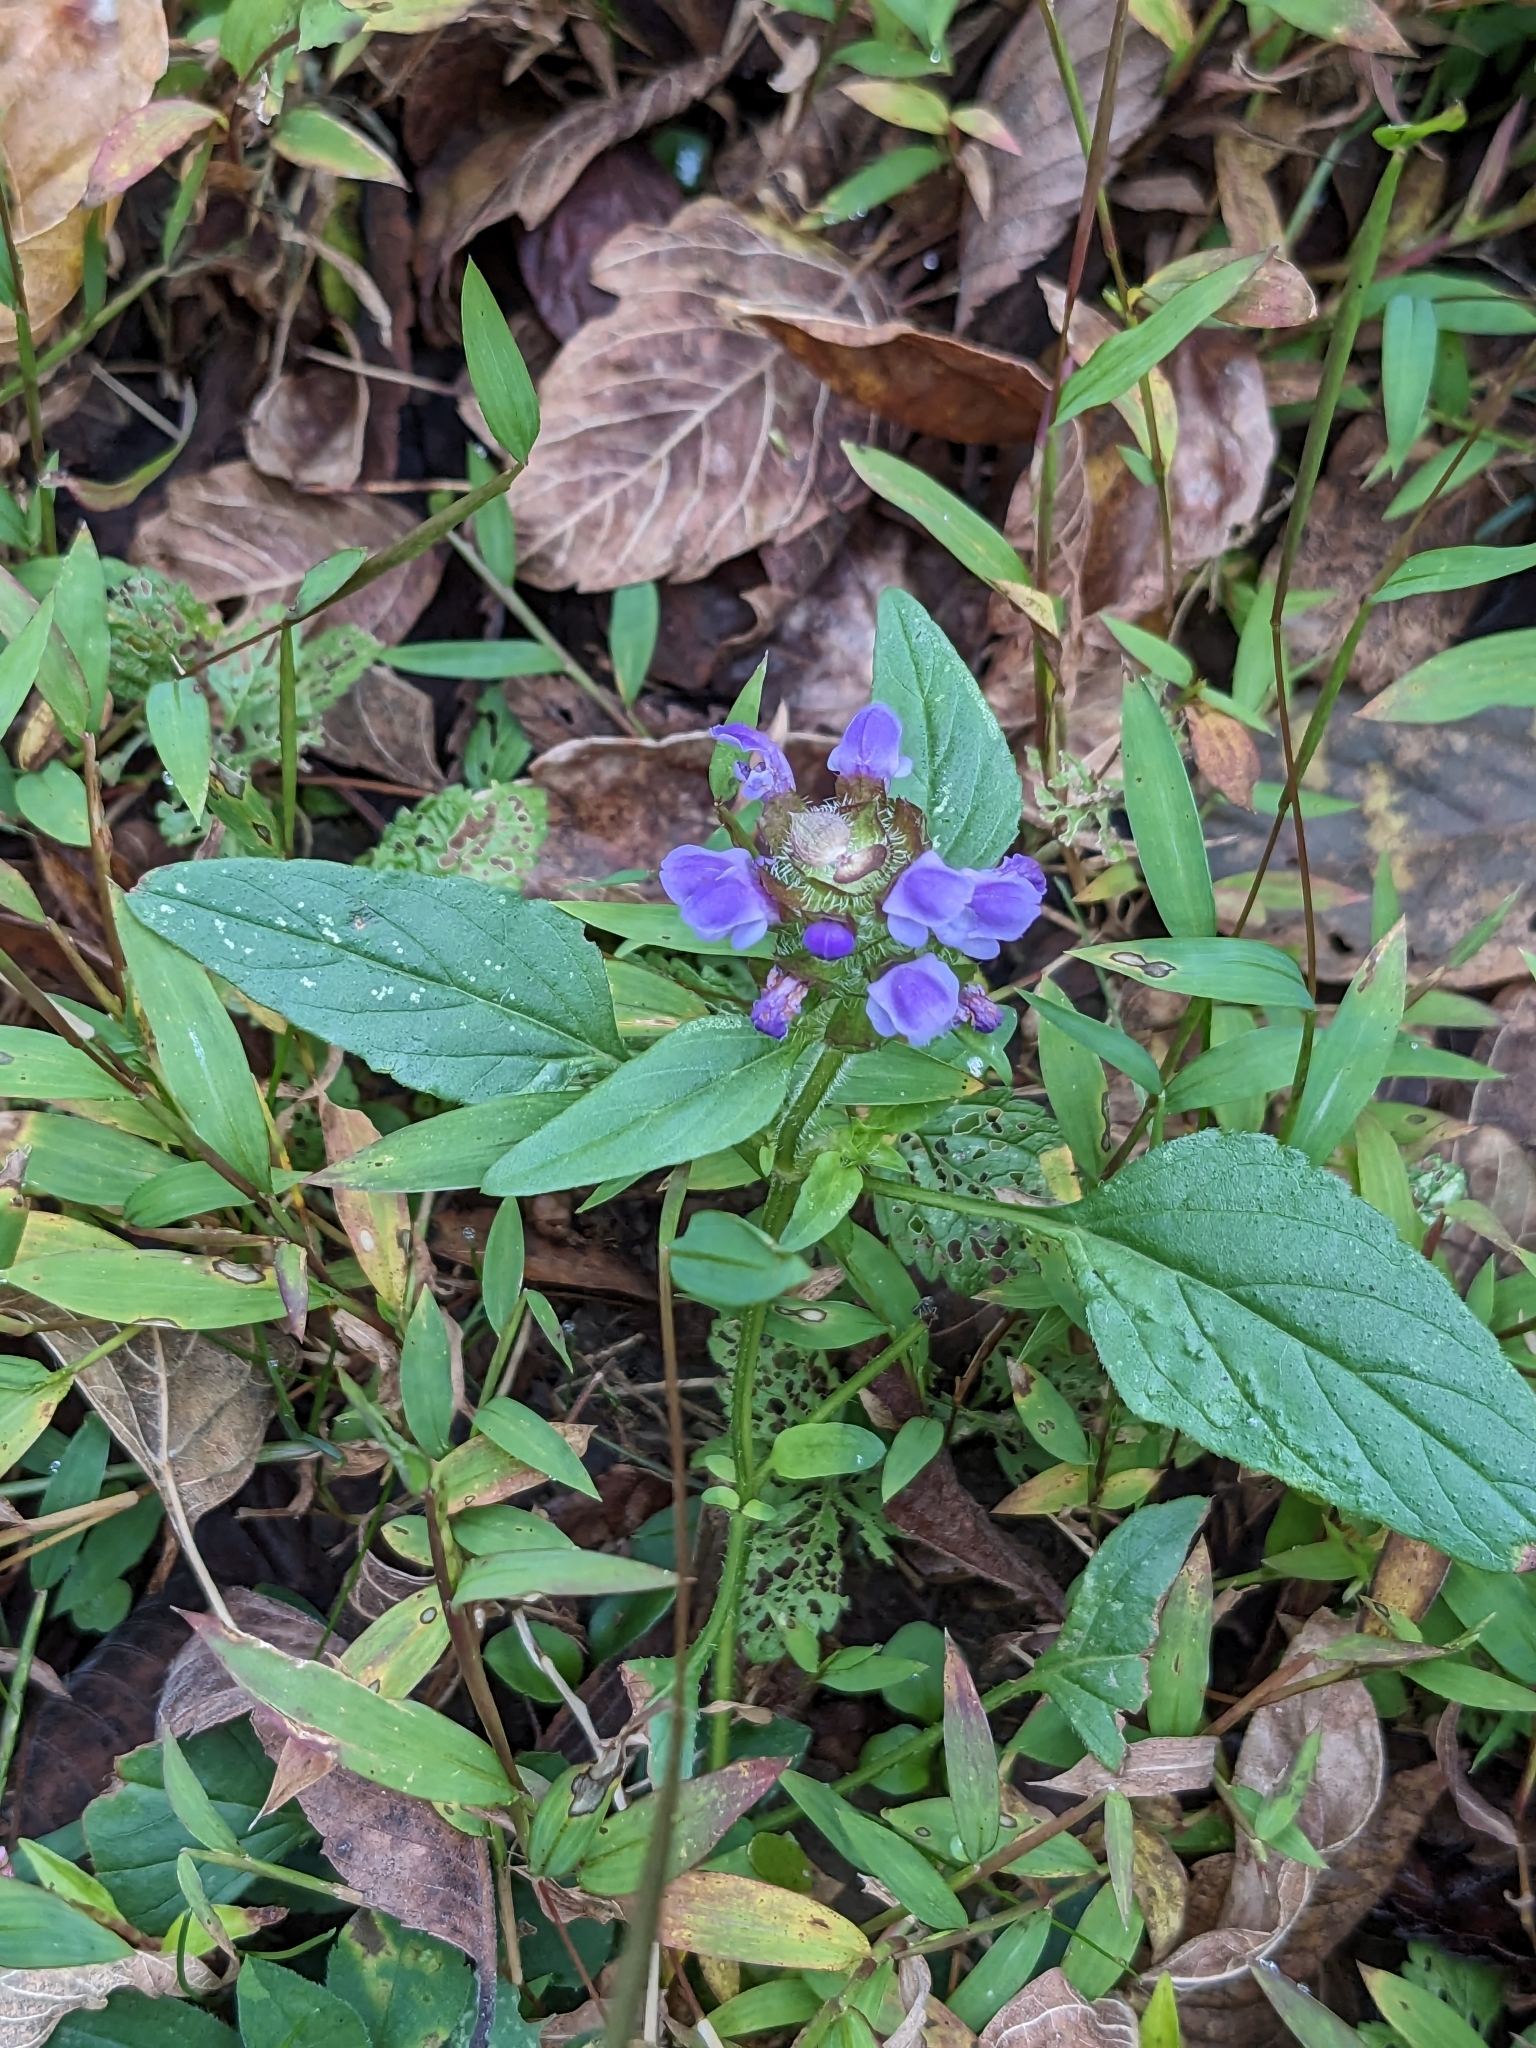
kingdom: Plantae
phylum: Tracheophyta
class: Magnoliopsida
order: Lamiales
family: Lamiaceae
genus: Prunella
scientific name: Prunella vulgaris
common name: Heal-all
